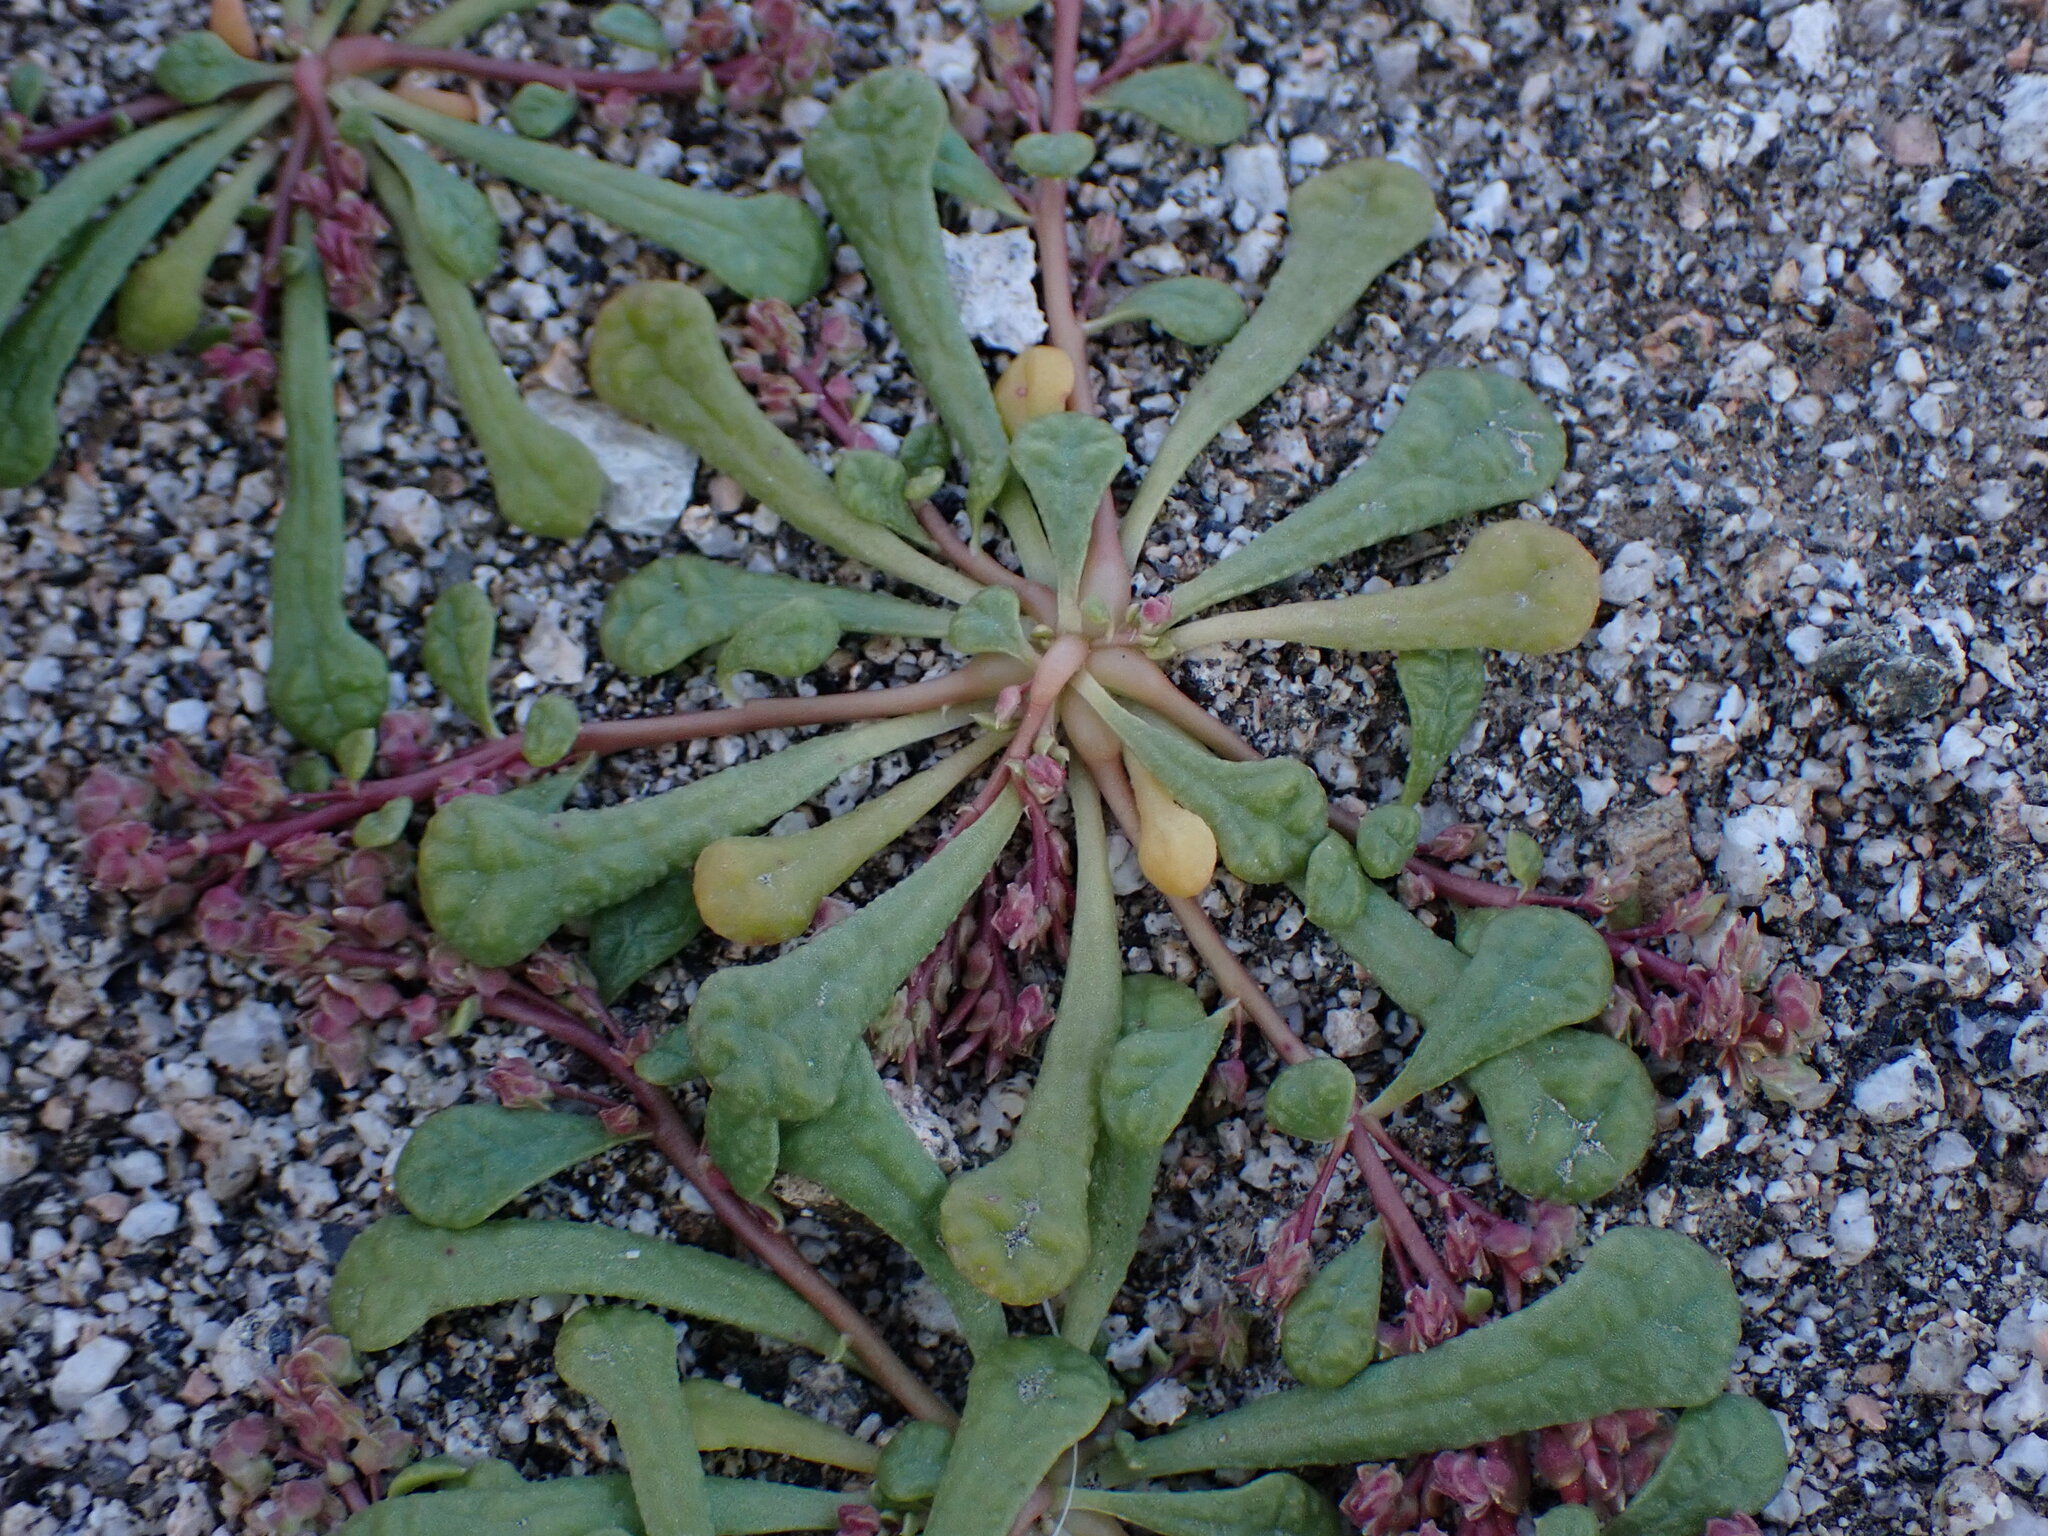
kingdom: Plantae
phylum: Tracheophyta
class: Magnoliopsida
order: Caryophyllales
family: Montiaceae
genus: Calyptridium
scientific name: Calyptridium monandrum
